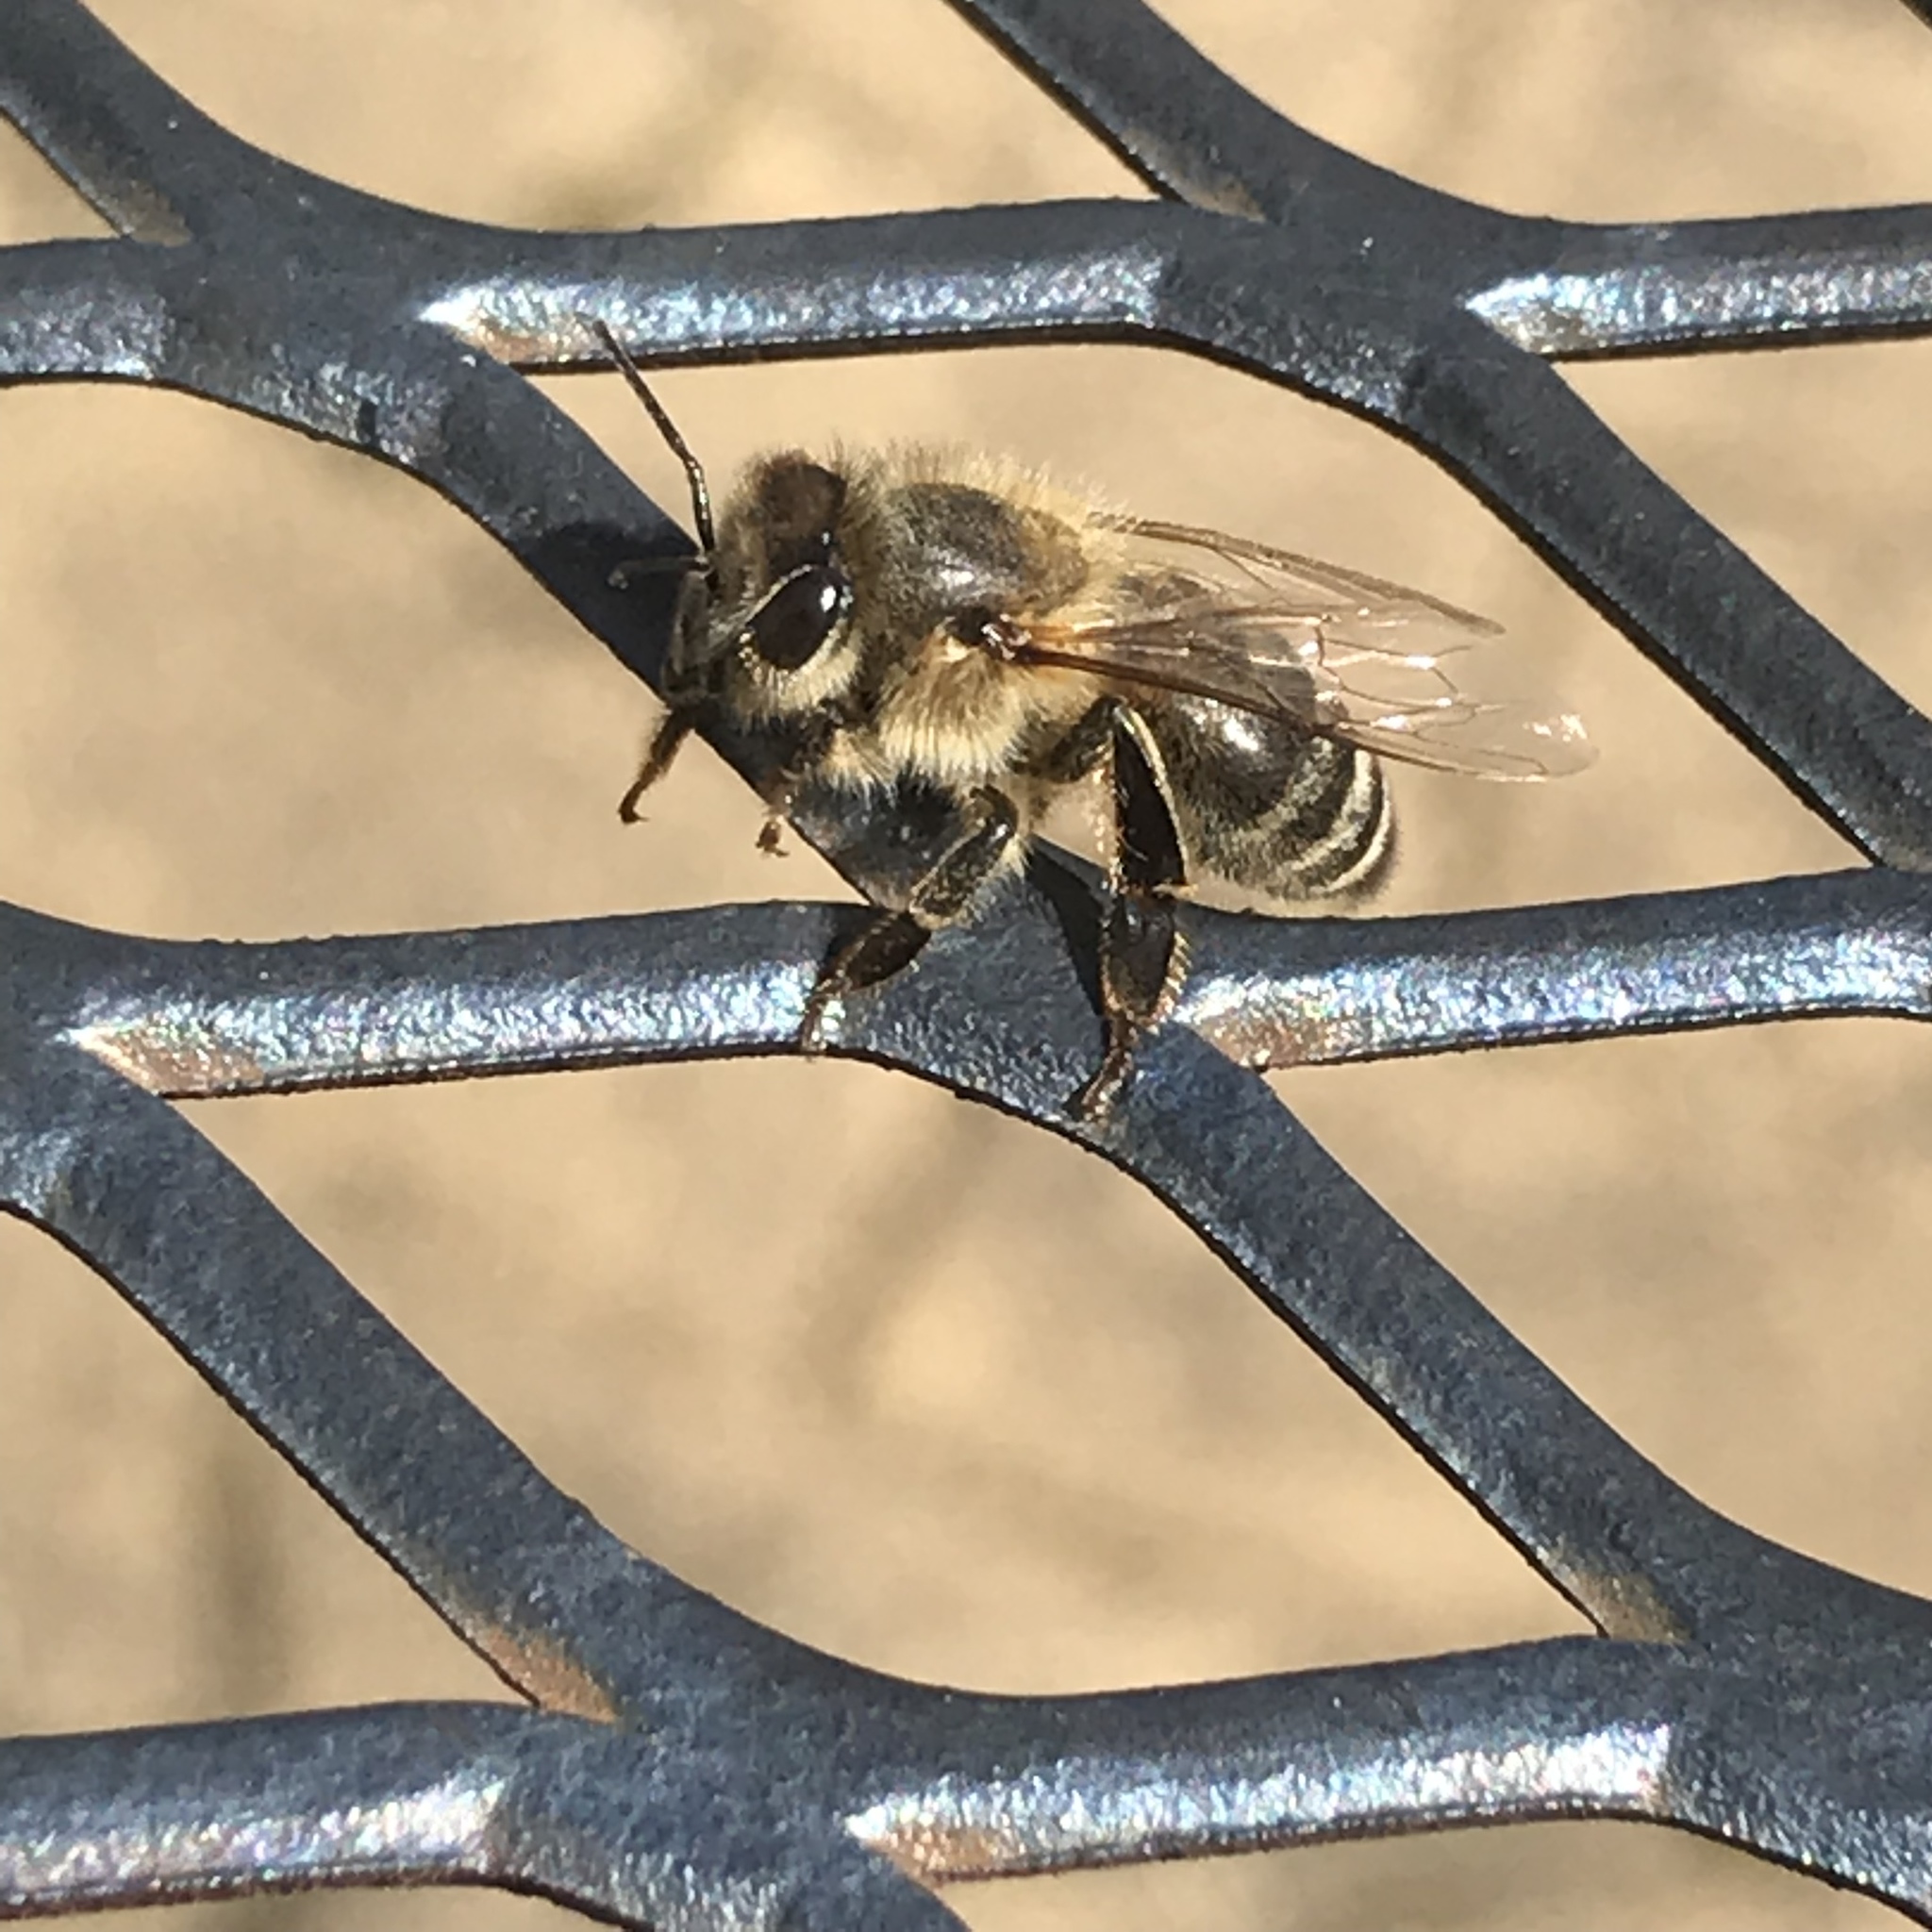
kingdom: Animalia
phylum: Arthropoda
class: Insecta
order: Hymenoptera
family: Apidae
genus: Apis
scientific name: Apis mellifera
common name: Honey bee
